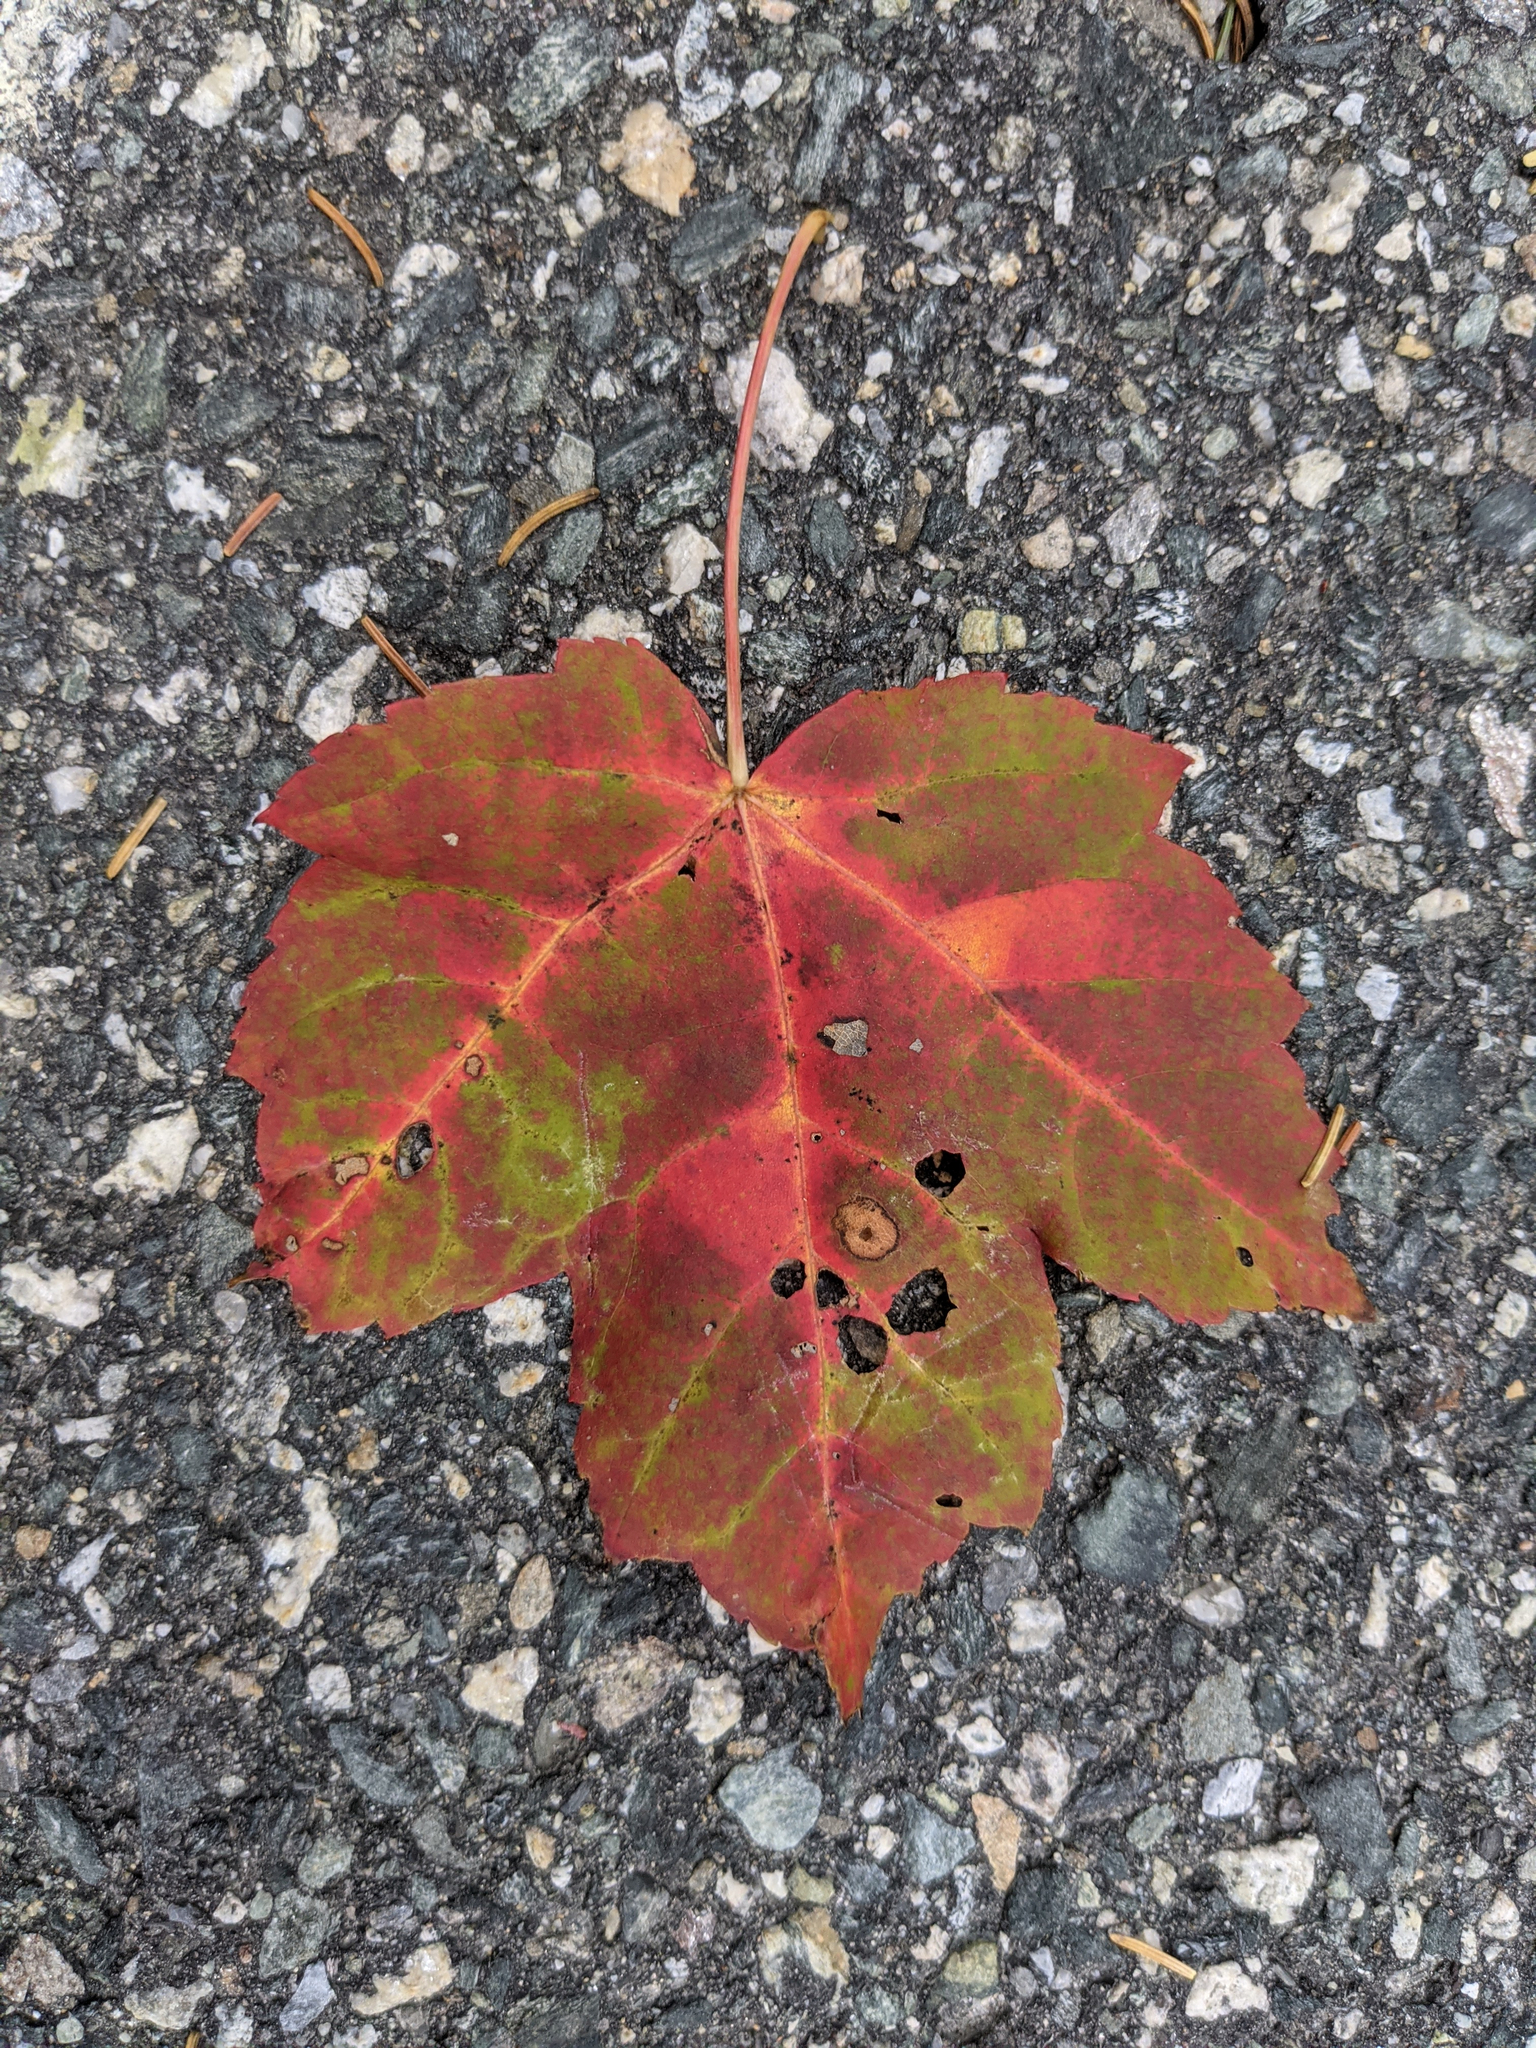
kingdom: Plantae
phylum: Tracheophyta
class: Magnoliopsida
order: Sapindales
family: Sapindaceae
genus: Acer
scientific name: Acer rubrum
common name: Red maple
